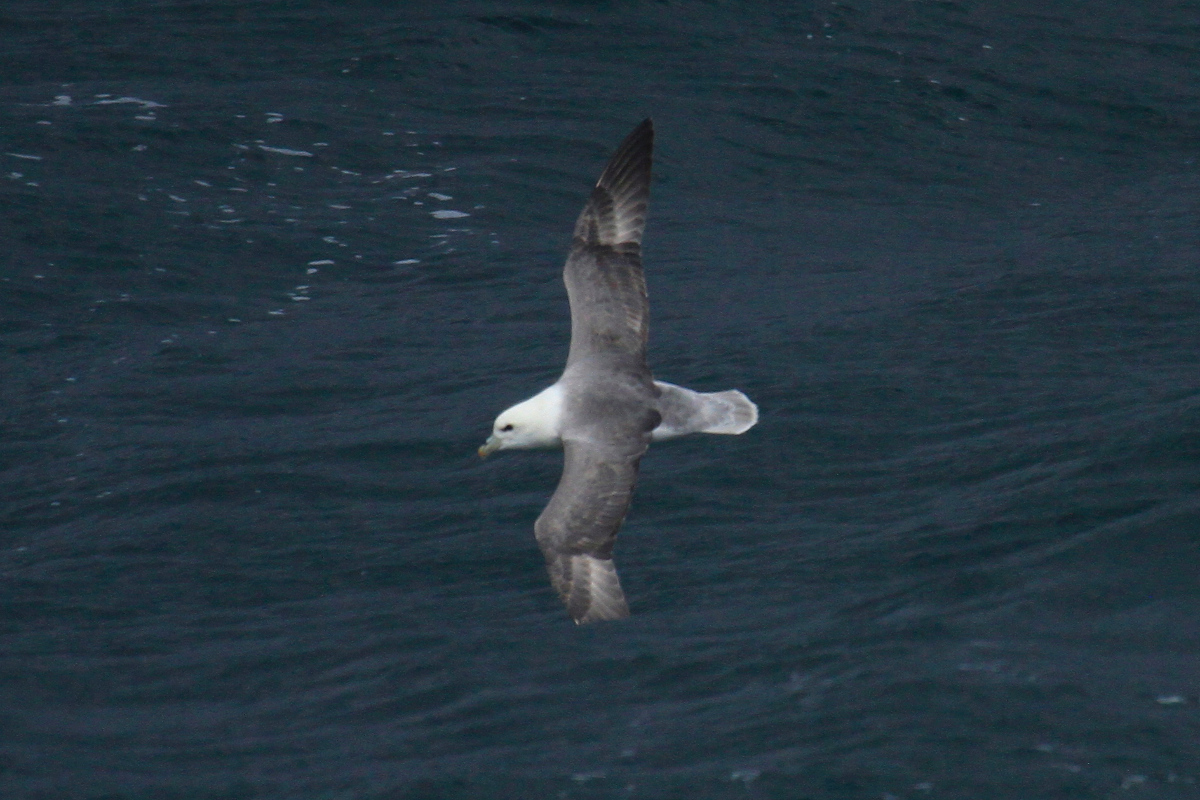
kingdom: Animalia
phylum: Chordata
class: Aves
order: Procellariiformes
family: Procellariidae
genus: Fulmarus
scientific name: Fulmarus glacialis
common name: Northern fulmar
